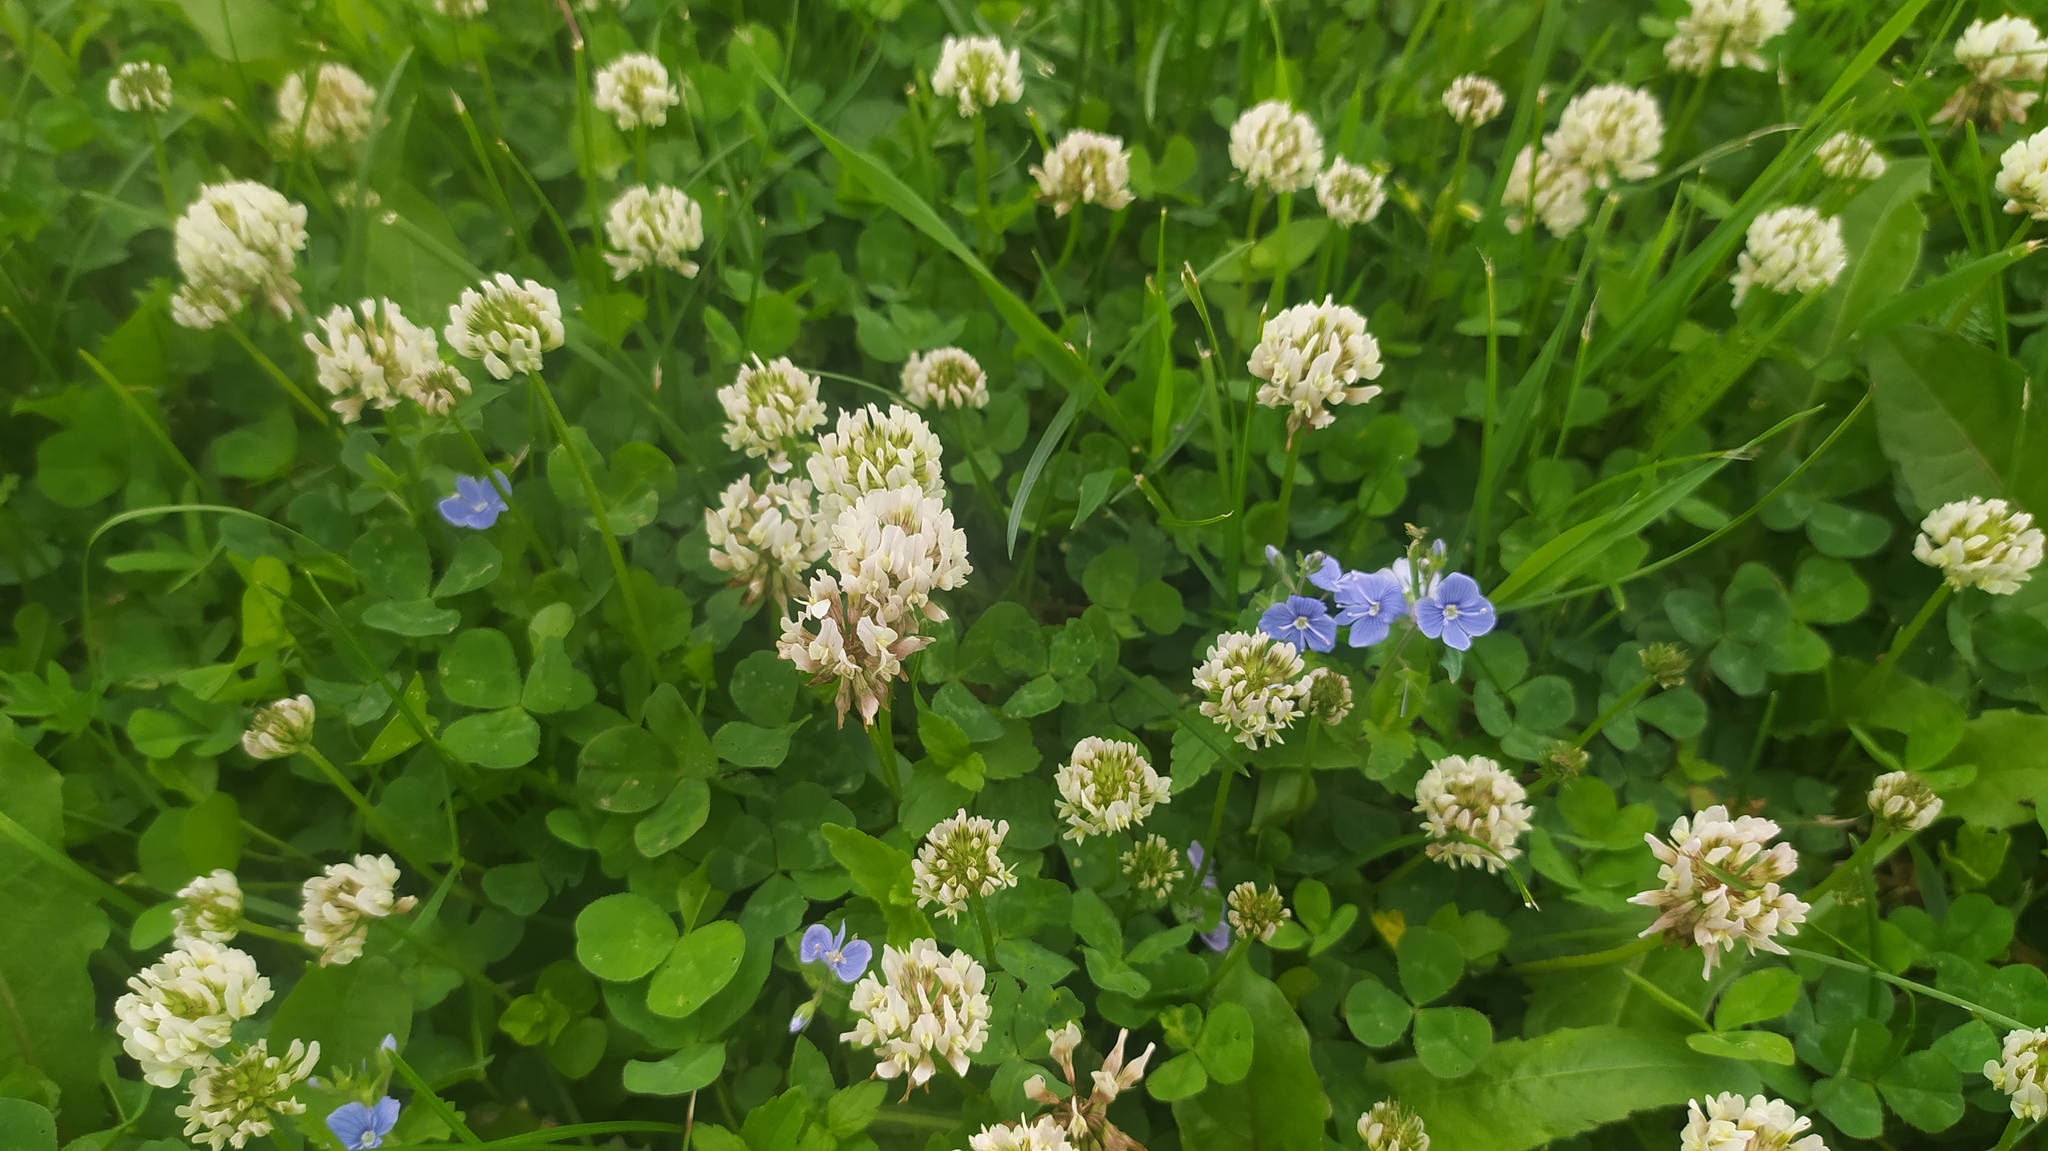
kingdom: Plantae
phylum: Tracheophyta
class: Magnoliopsida
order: Fabales
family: Fabaceae
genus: Trifolium
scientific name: Trifolium repens
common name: White clover
